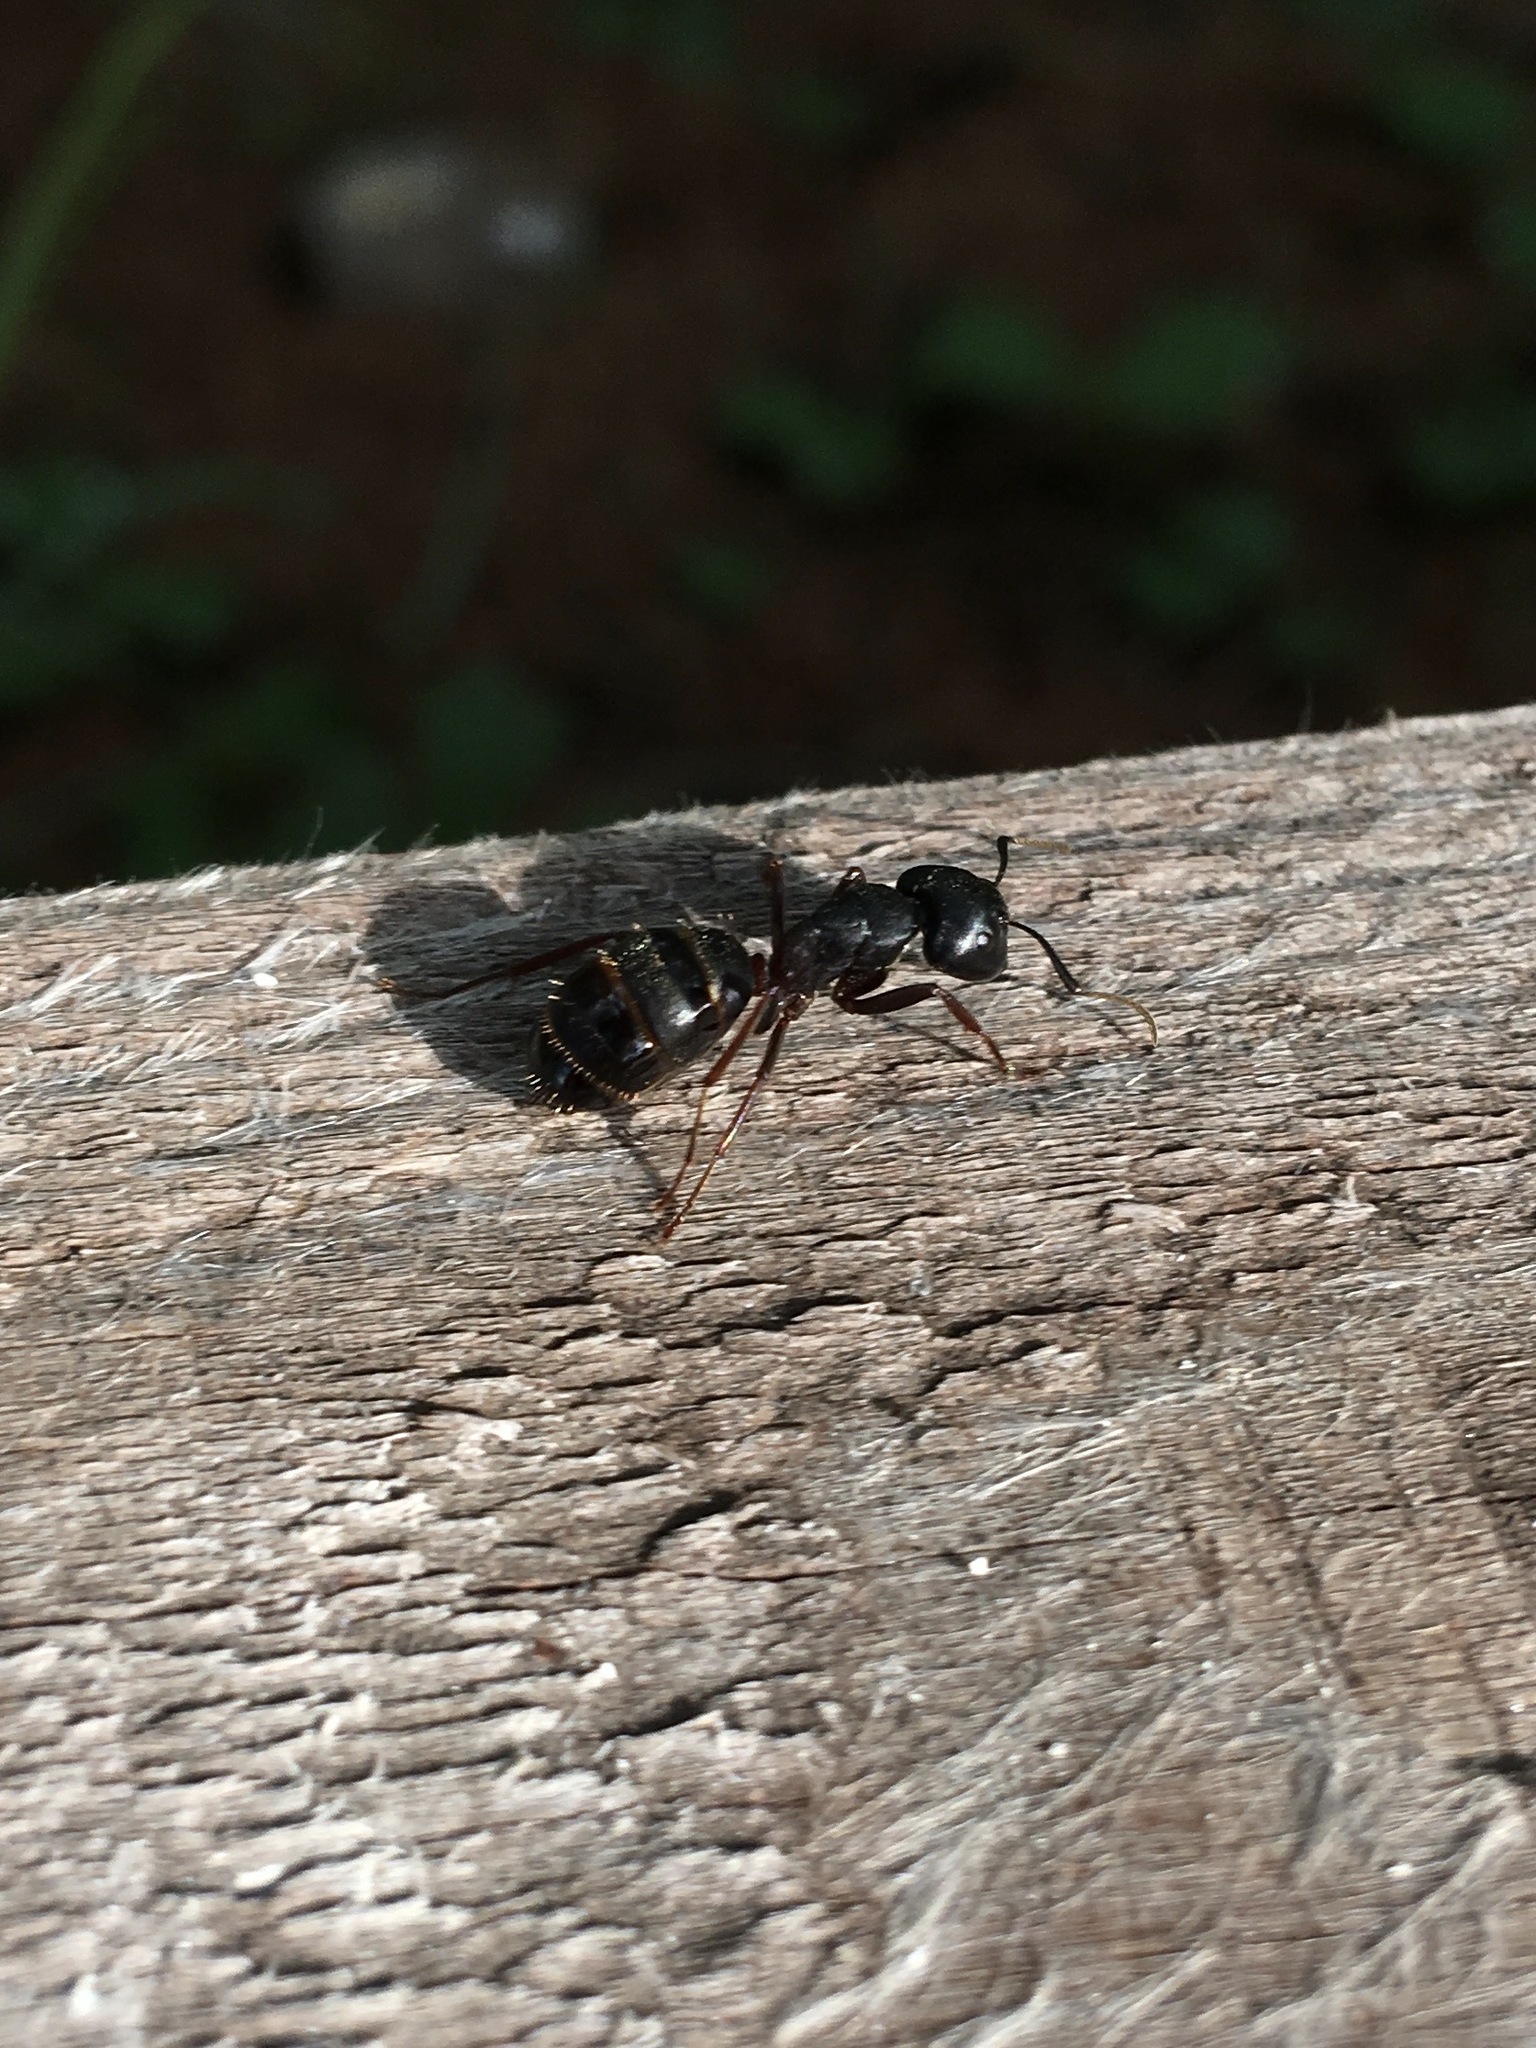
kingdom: Animalia
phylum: Arthropoda
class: Insecta
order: Hymenoptera
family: Formicidae
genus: Camponotus
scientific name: Camponotus herculeanus
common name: Hercules ant
